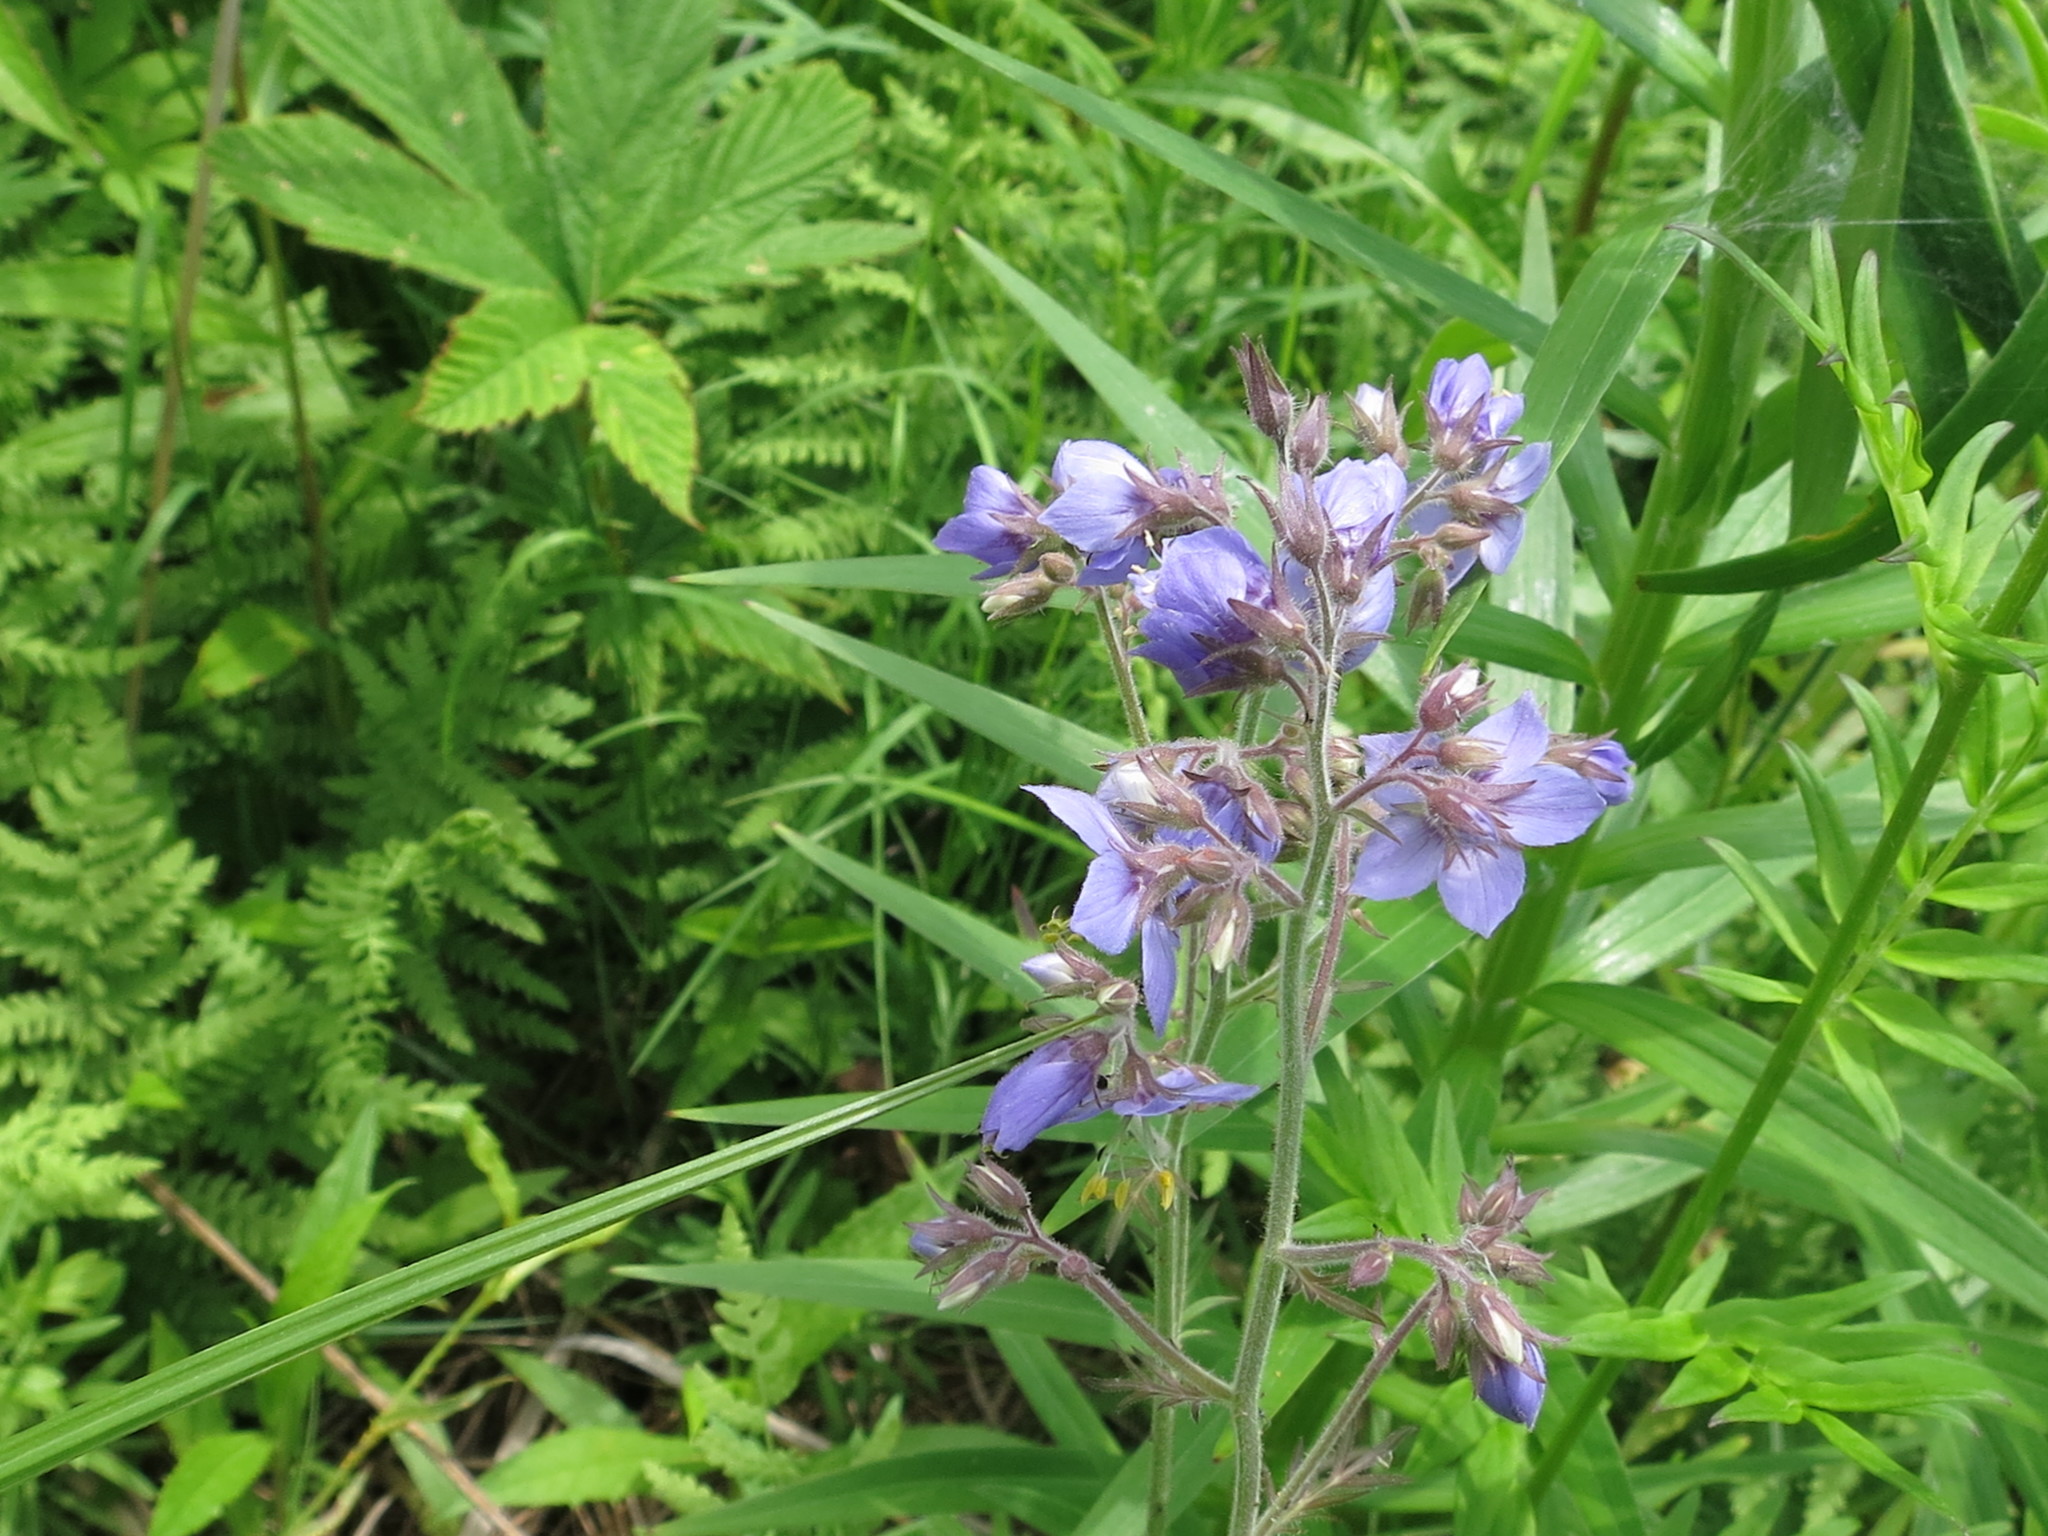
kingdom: Plantae
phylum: Tracheophyta
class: Magnoliopsida
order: Ericales
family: Polemoniaceae
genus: Polemonium
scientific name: Polemonium acutiflorum
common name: Tall jacob's-ladder
